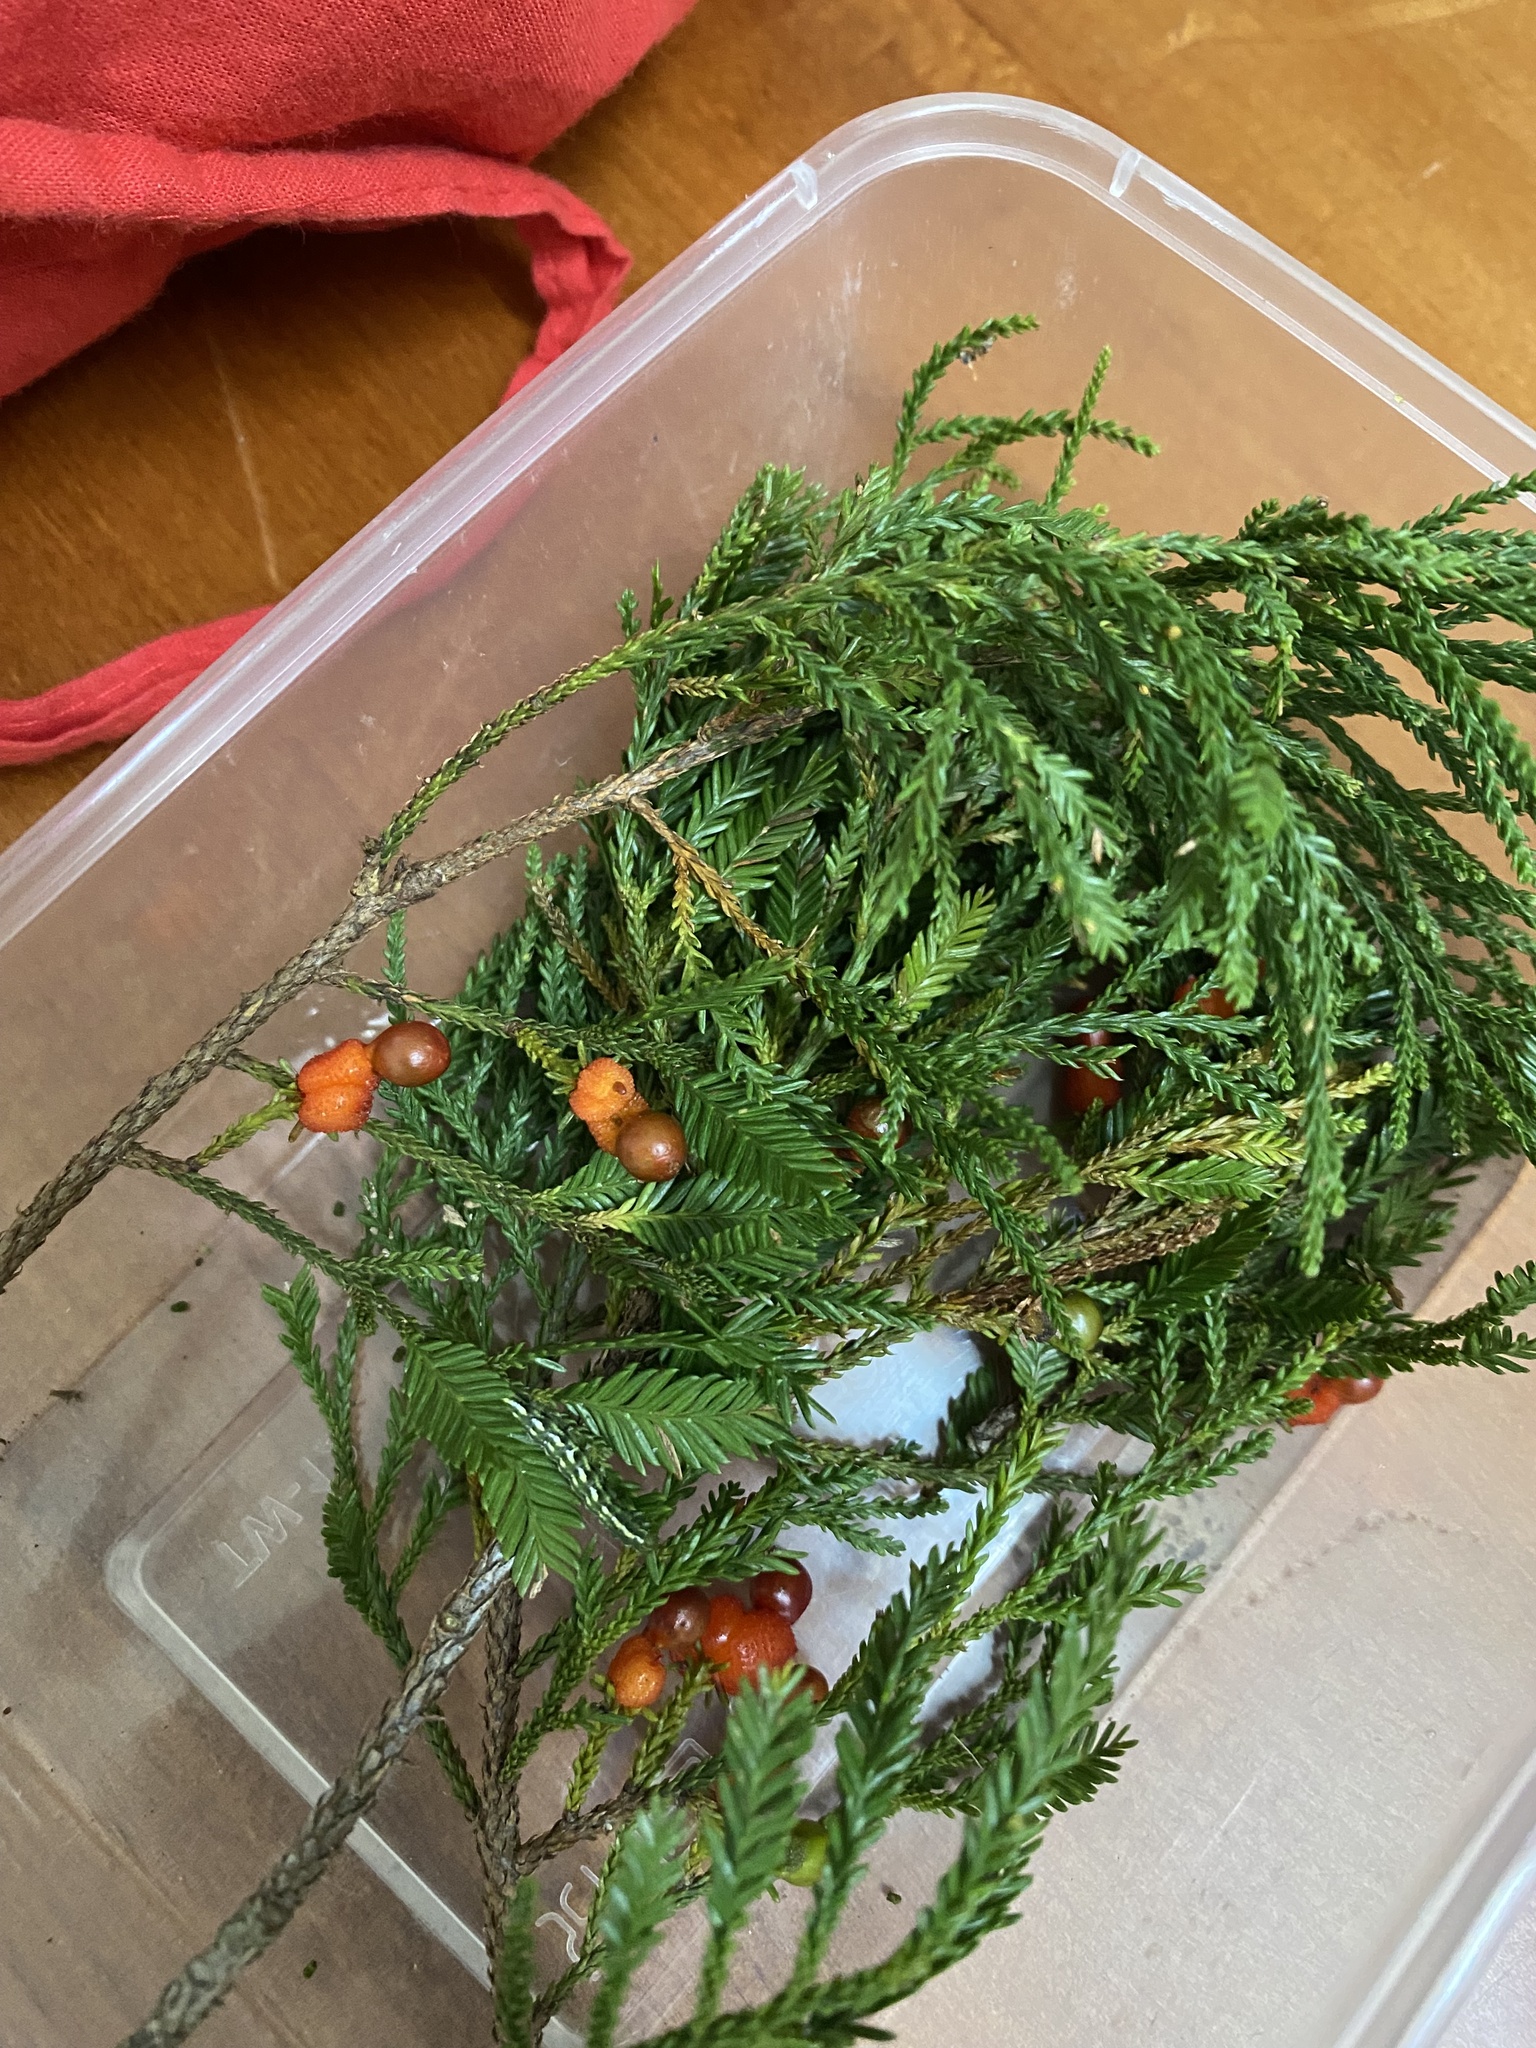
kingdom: Plantae
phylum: Tracheophyta
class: Pinopsida
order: Pinales
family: Podocarpaceae
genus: Dacrycarpus
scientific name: Dacrycarpus imbricatus
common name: Pine
